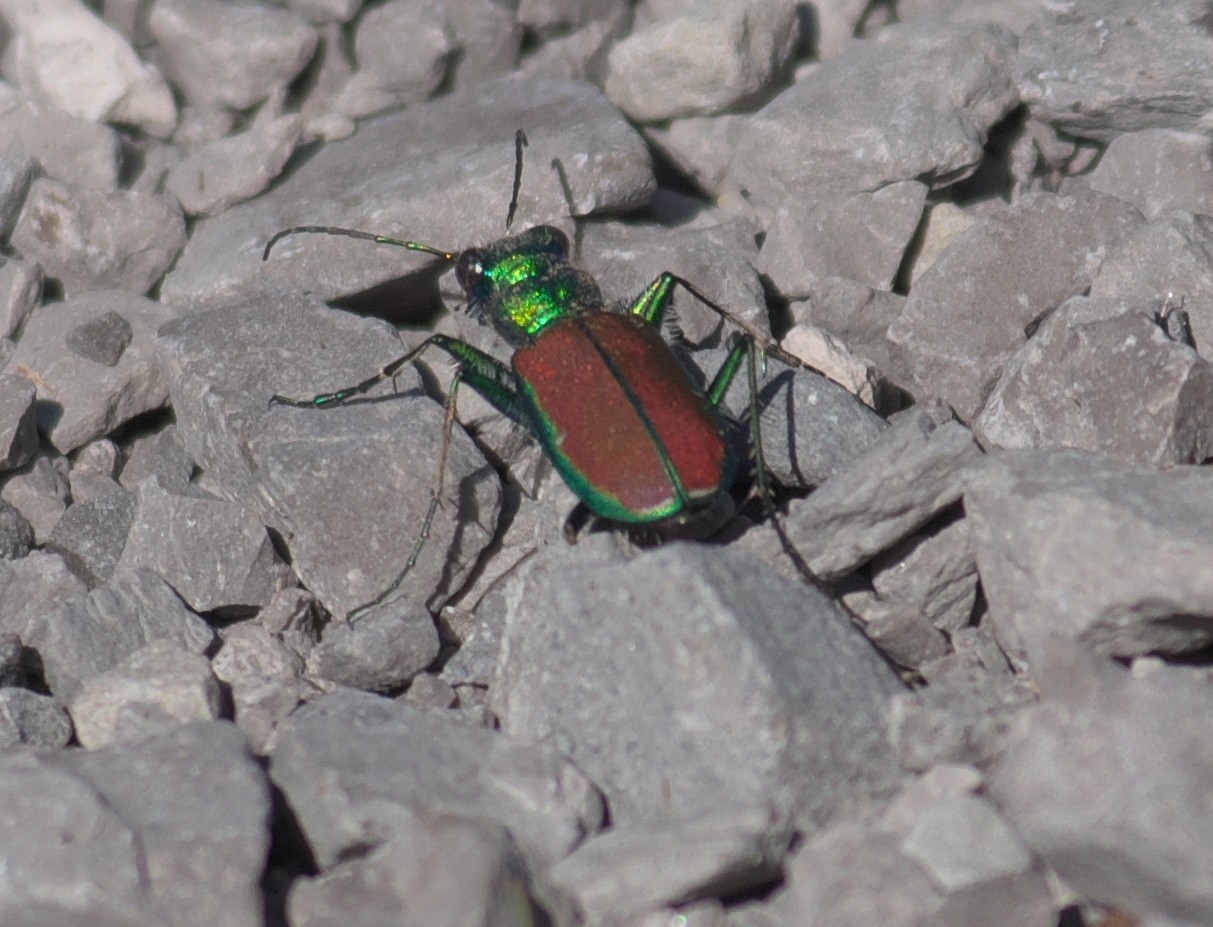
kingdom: Animalia
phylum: Arthropoda
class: Insecta
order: Coleoptera
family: Carabidae
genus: Cicindela
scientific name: Cicindela splendida
